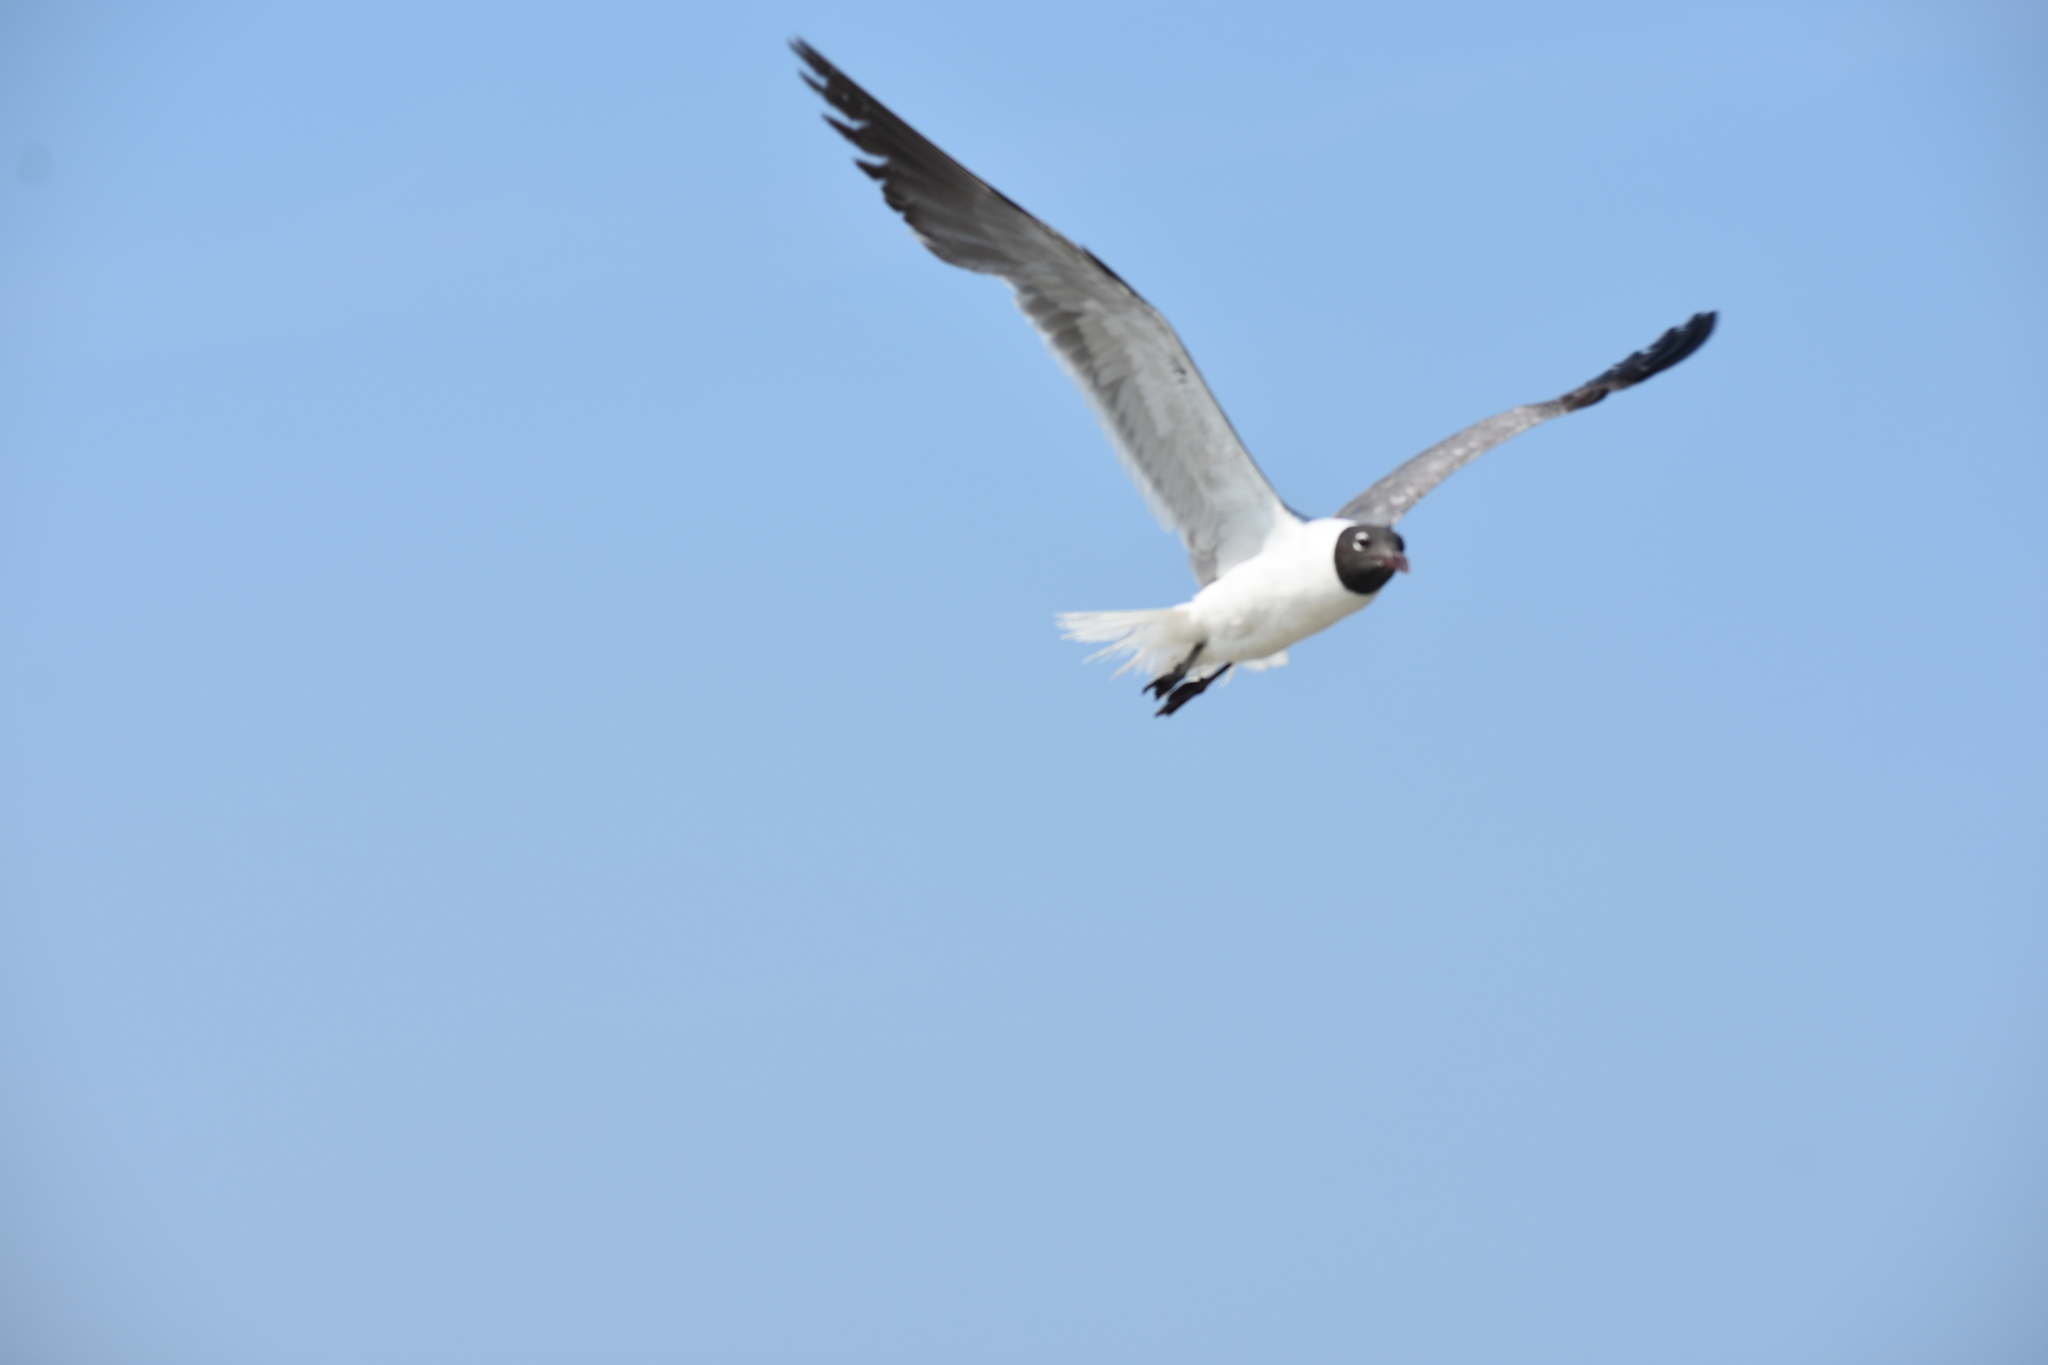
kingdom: Animalia
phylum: Chordata
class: Aves
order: Charadriiformes
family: Laridae
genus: Leucophaeus
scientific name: Leucophaeus atricilla
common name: Laughing gull
